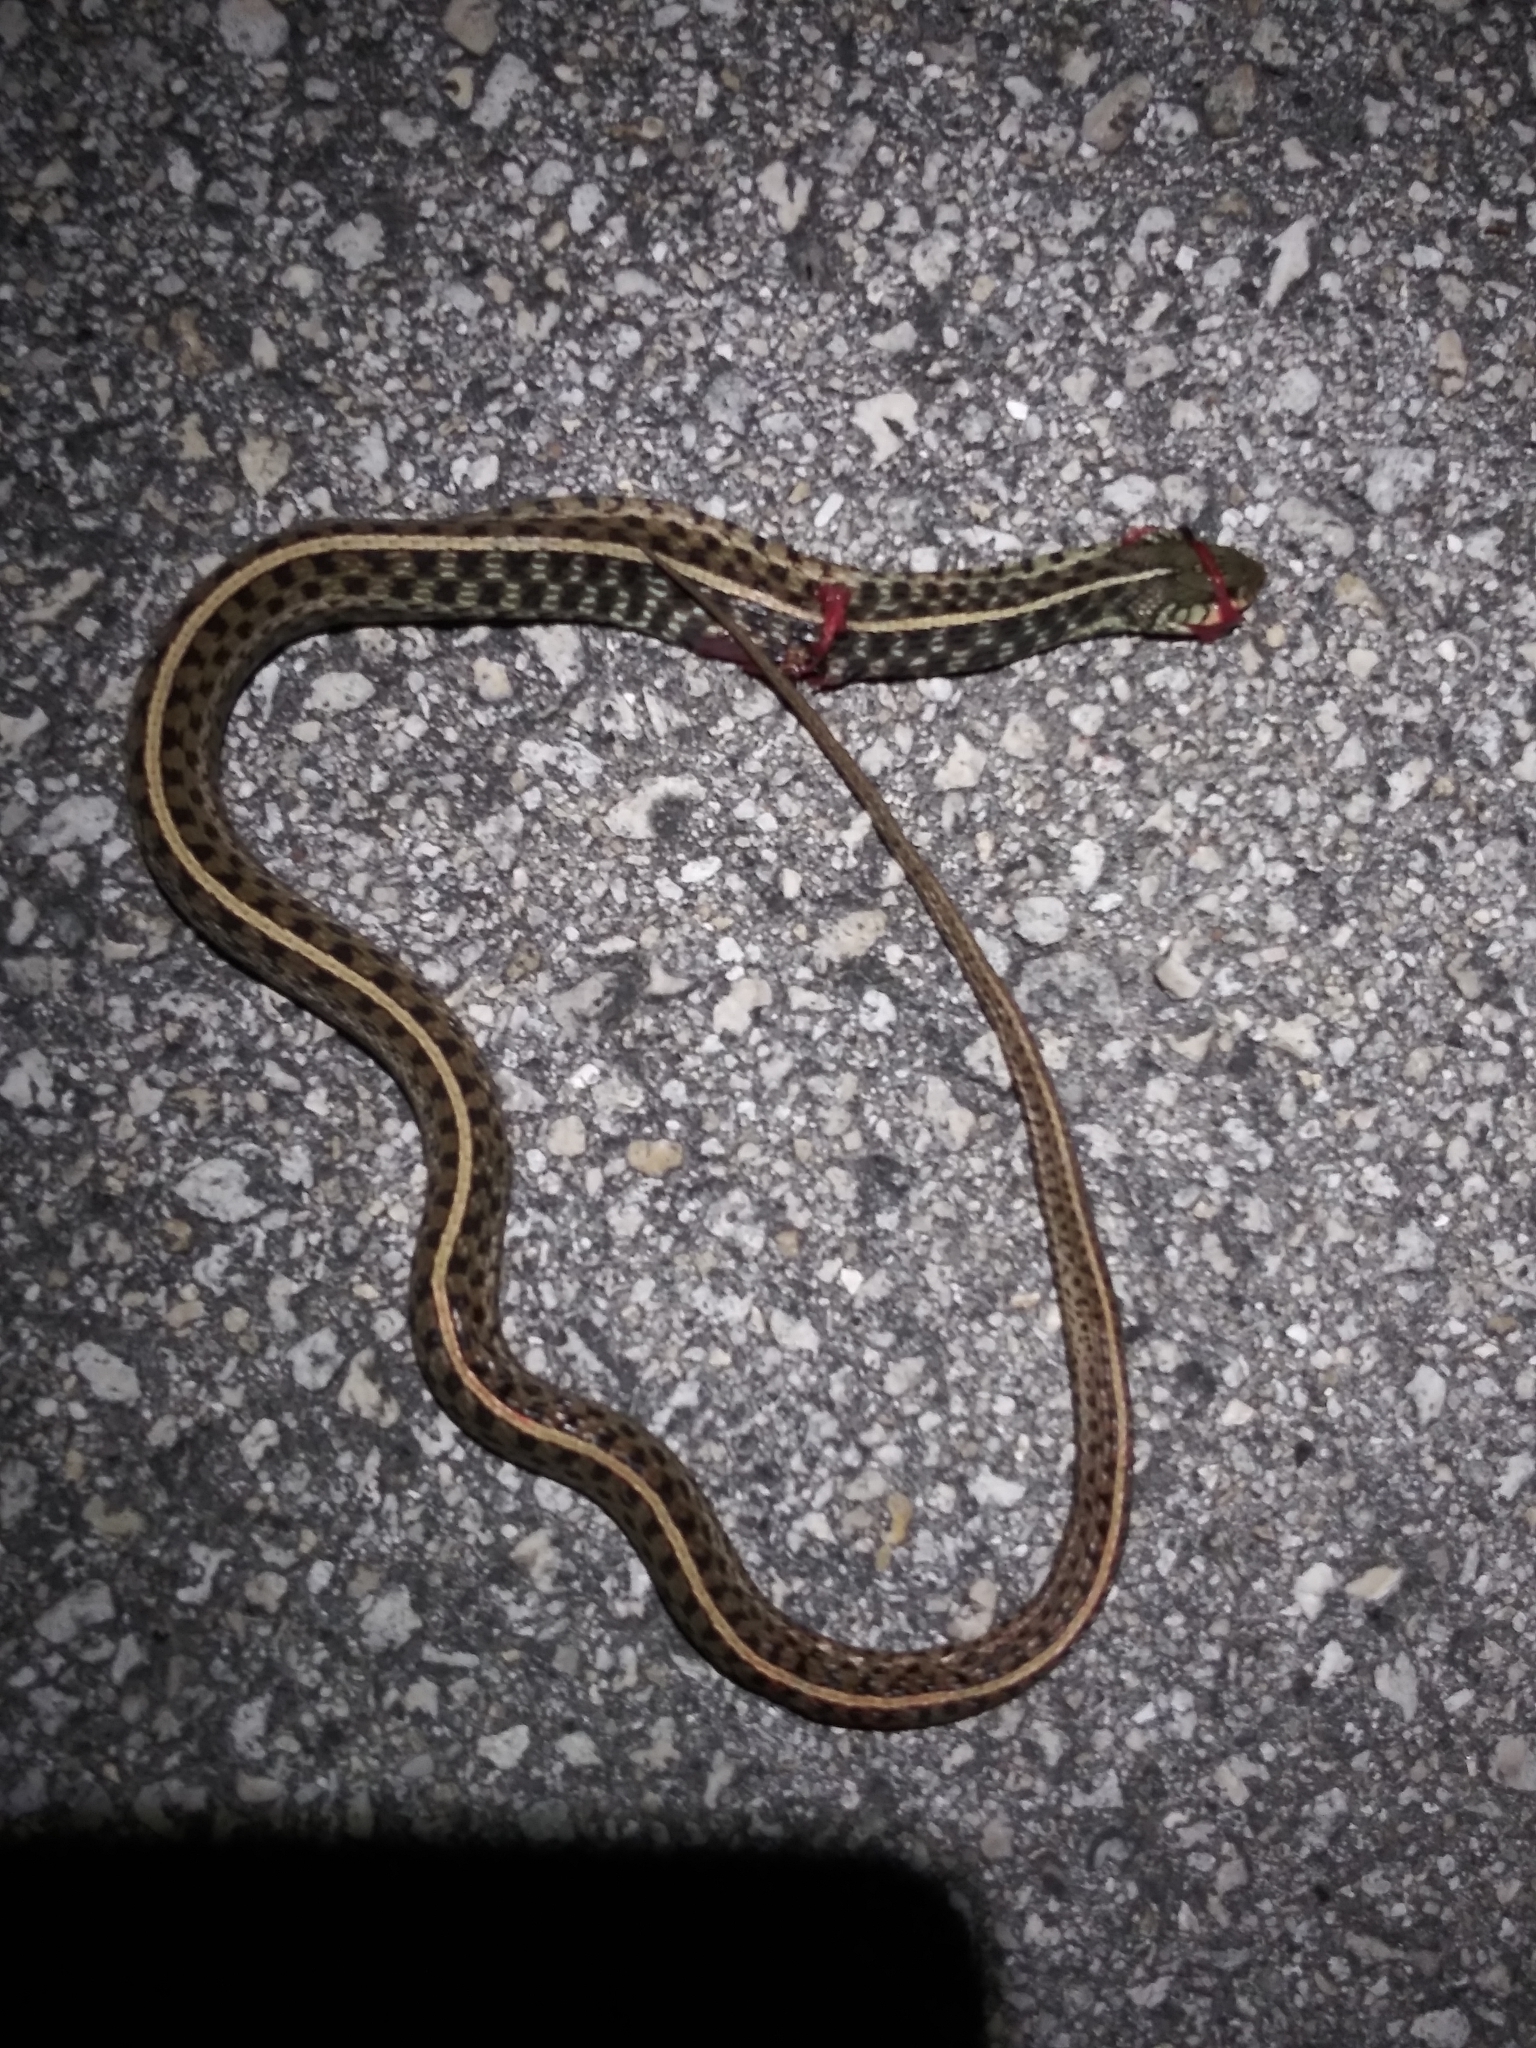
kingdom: Animalia
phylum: Chordata
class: Squamata
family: Colubridae
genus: Thamnophis
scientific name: Thamnophis sirtalis
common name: Common garter snake
